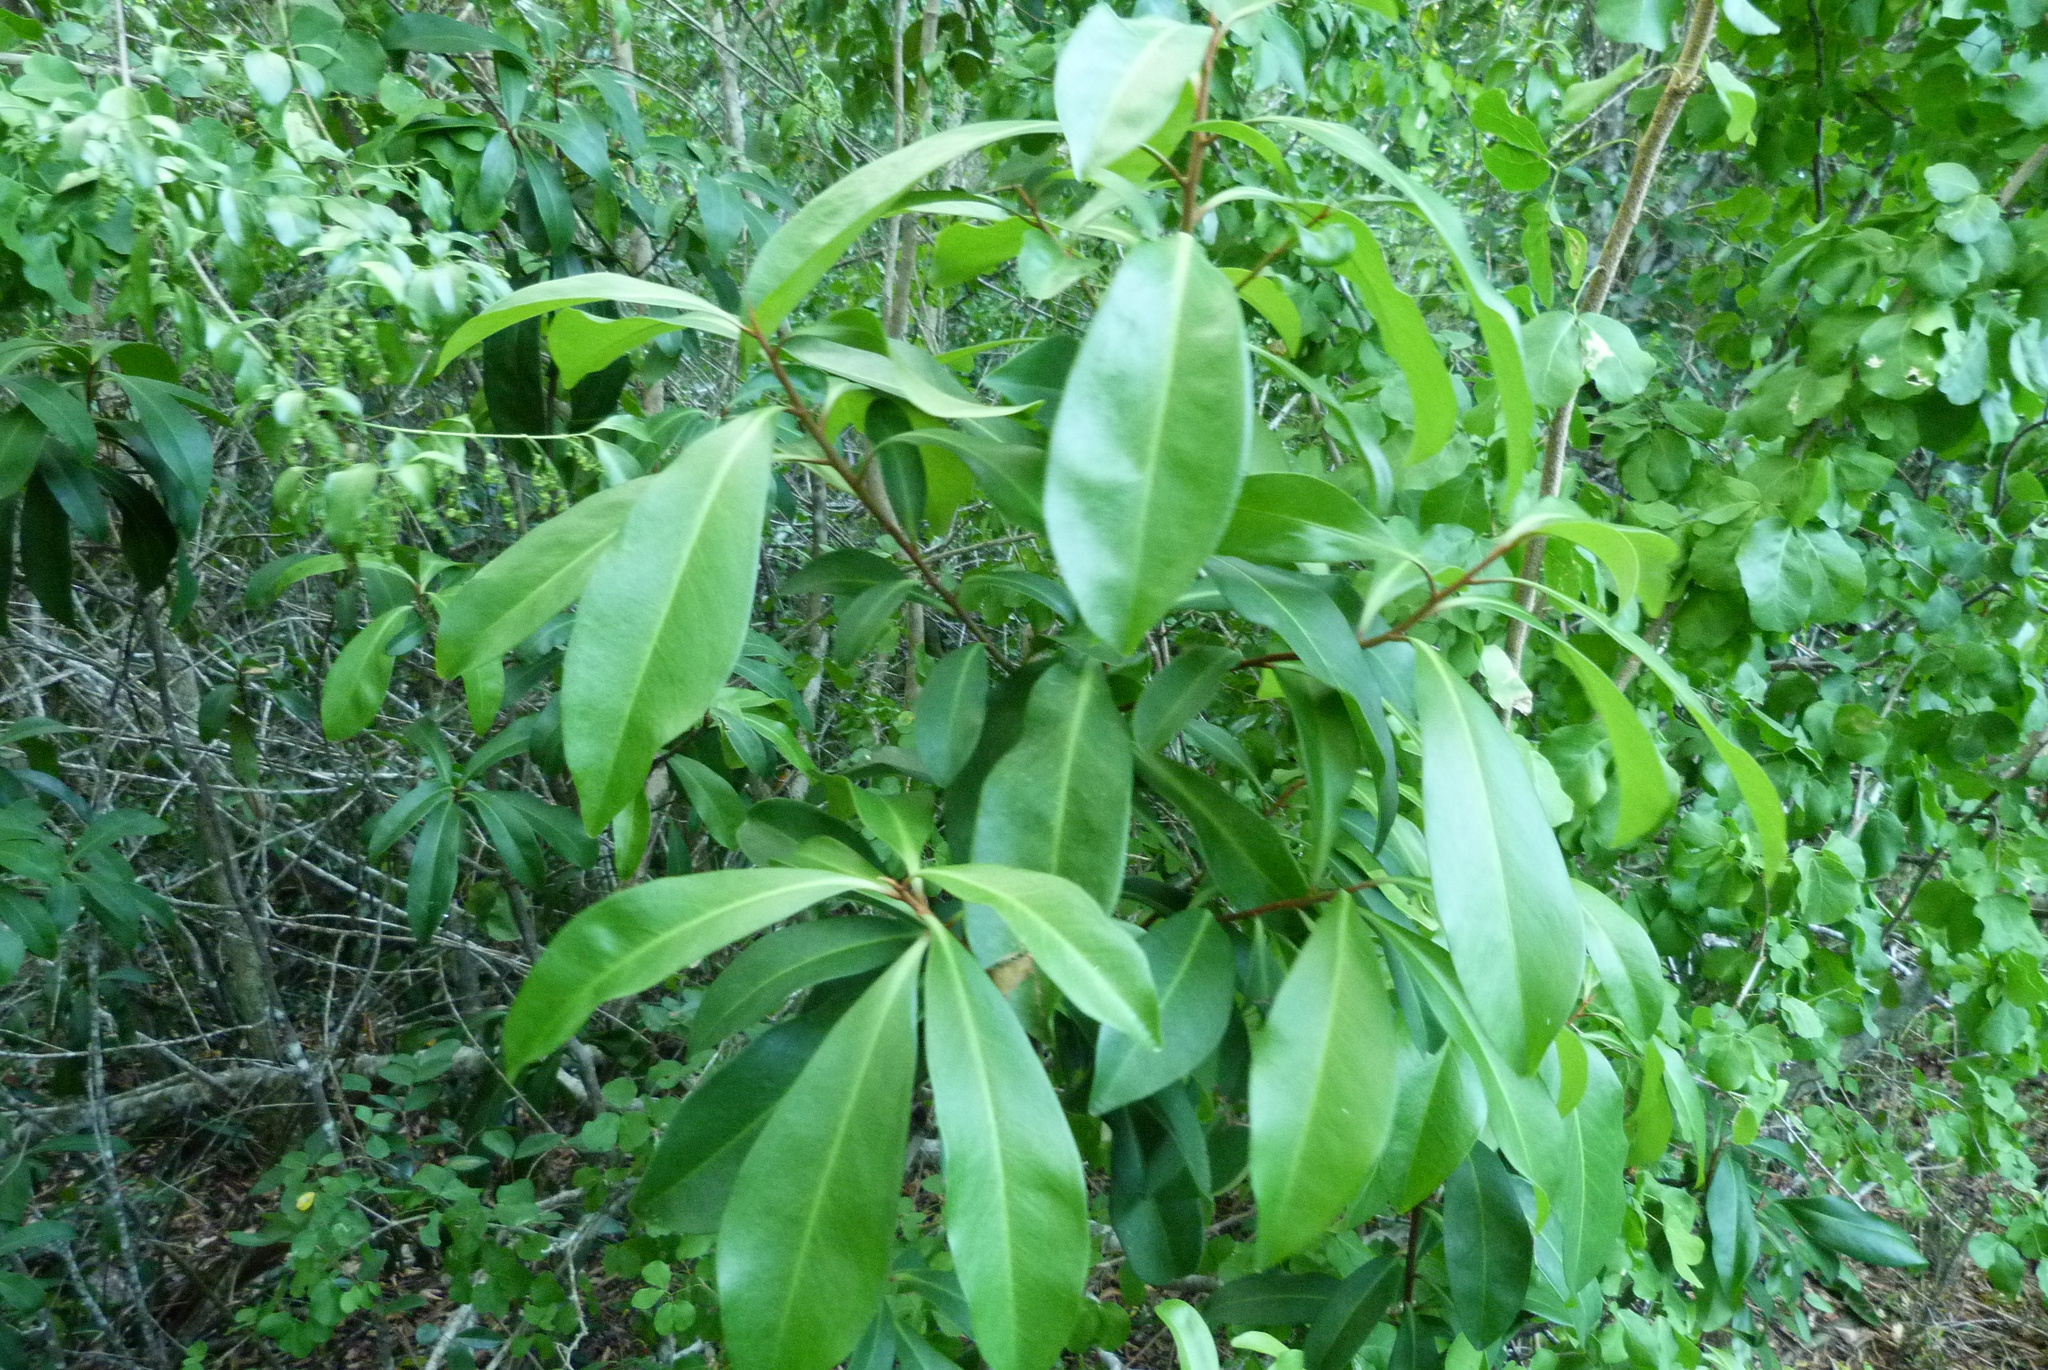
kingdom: Plantae
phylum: Tracheophyta
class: Magnoliopsida
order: Ericales
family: Primulaceae
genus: Ardisia
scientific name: Ardisia escallonioides
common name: Island marlberry
